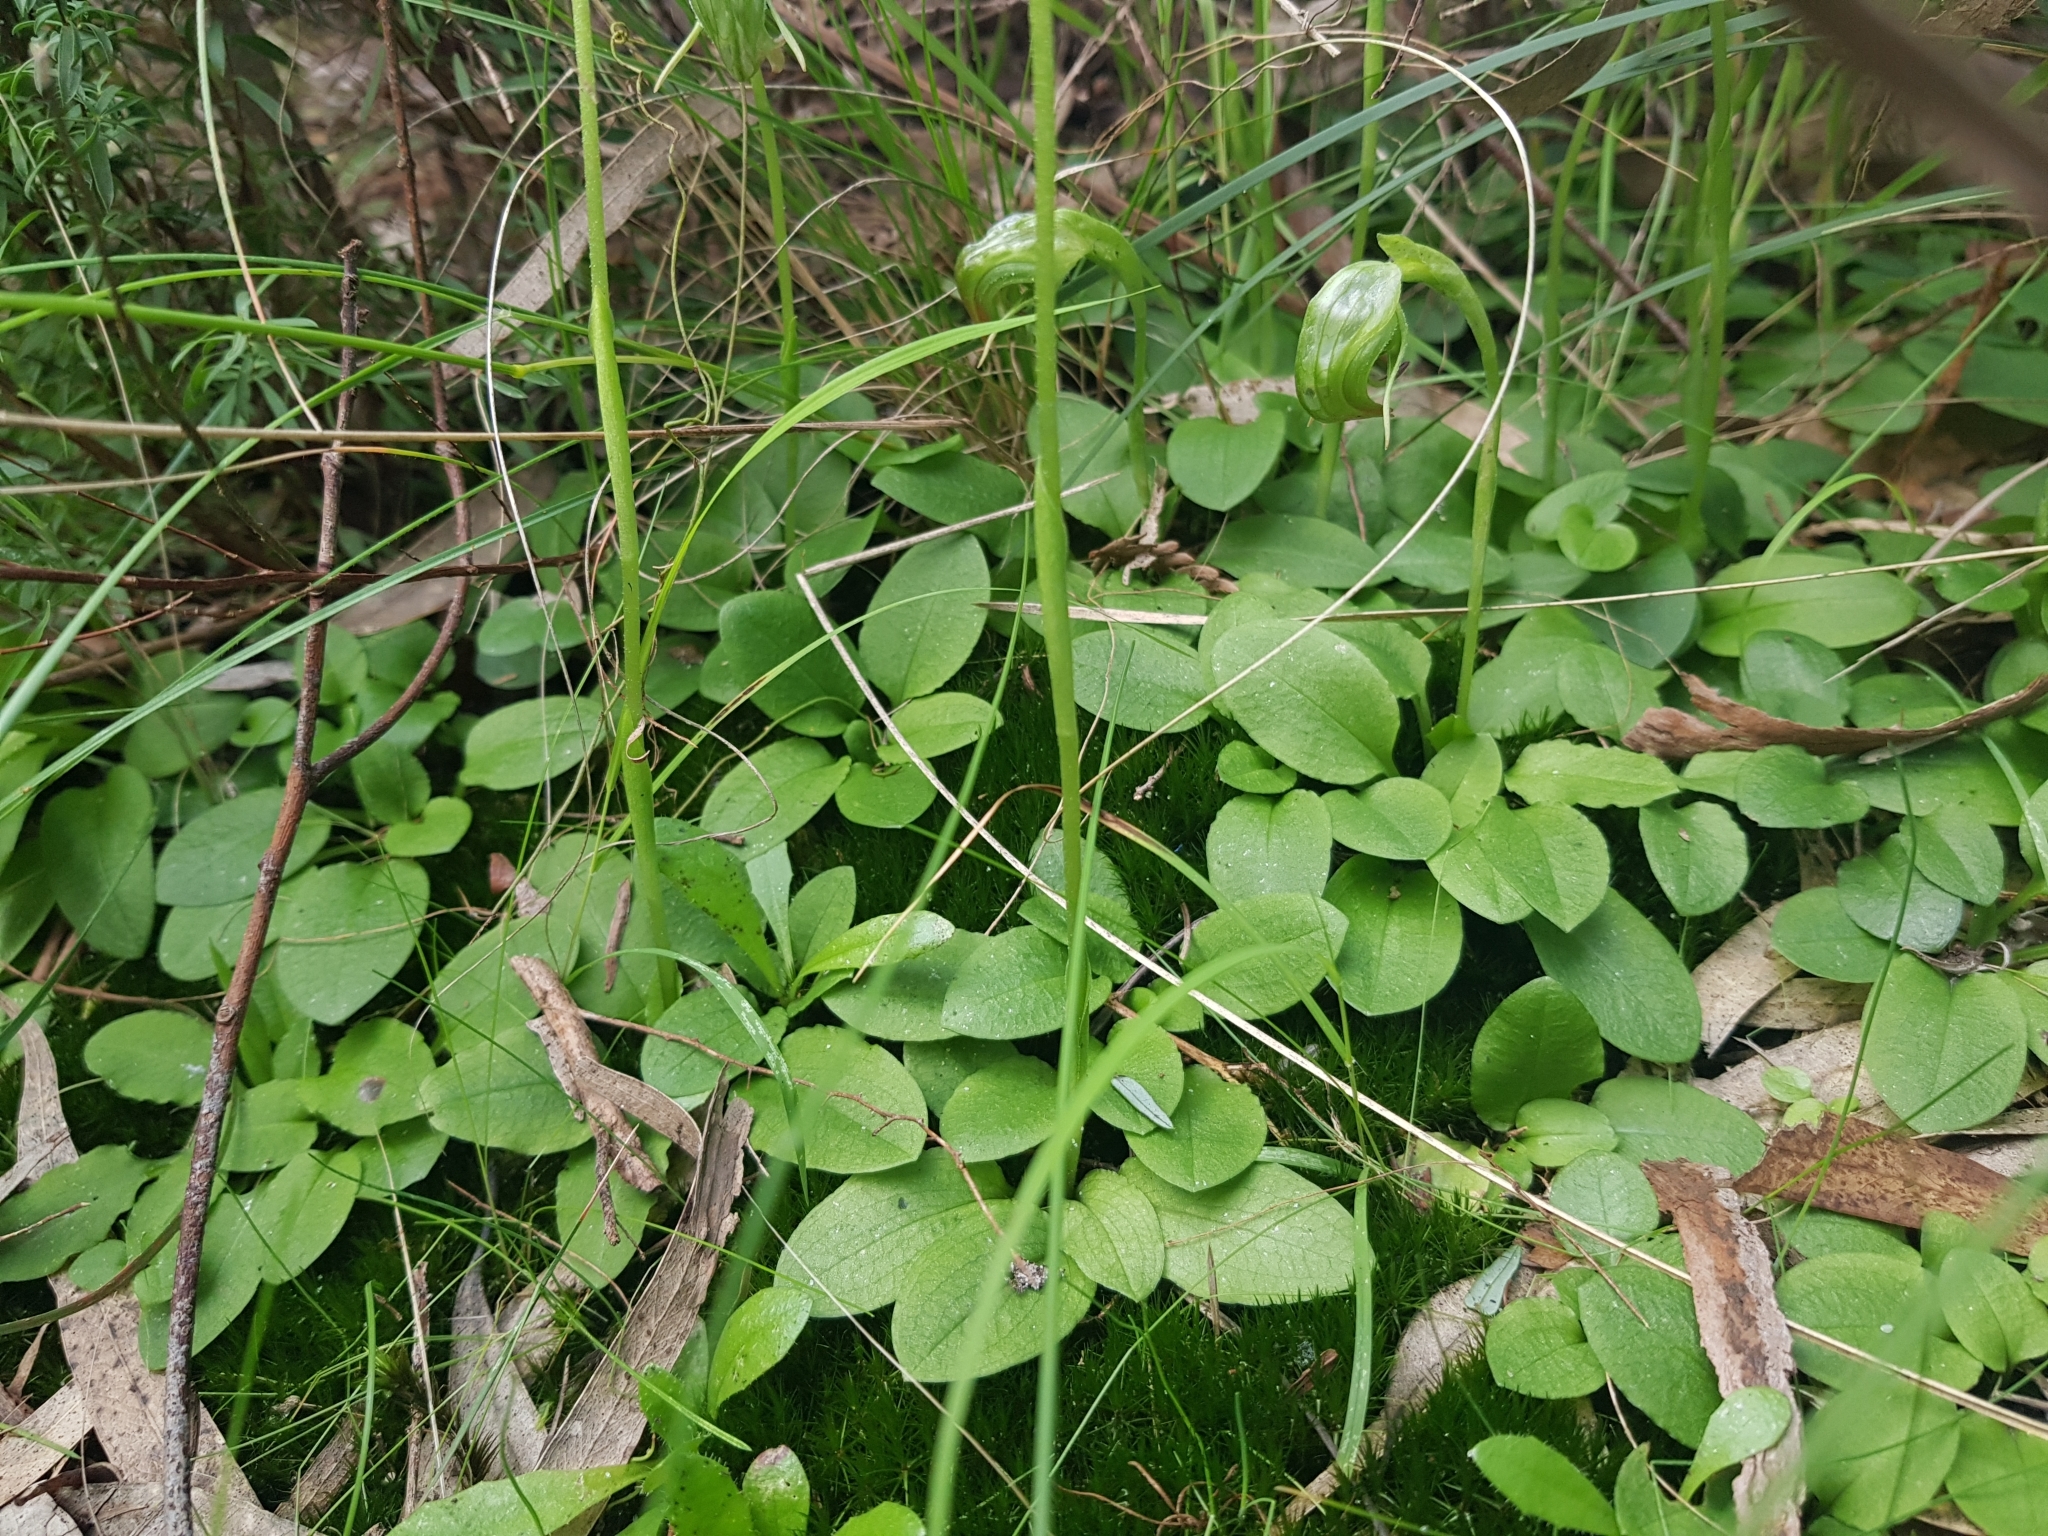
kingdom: Plantae
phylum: Tracheophyta
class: Liliopsida
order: Asparagales
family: Orchidaceae
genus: Pterostylis
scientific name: Pterostylis nutans
